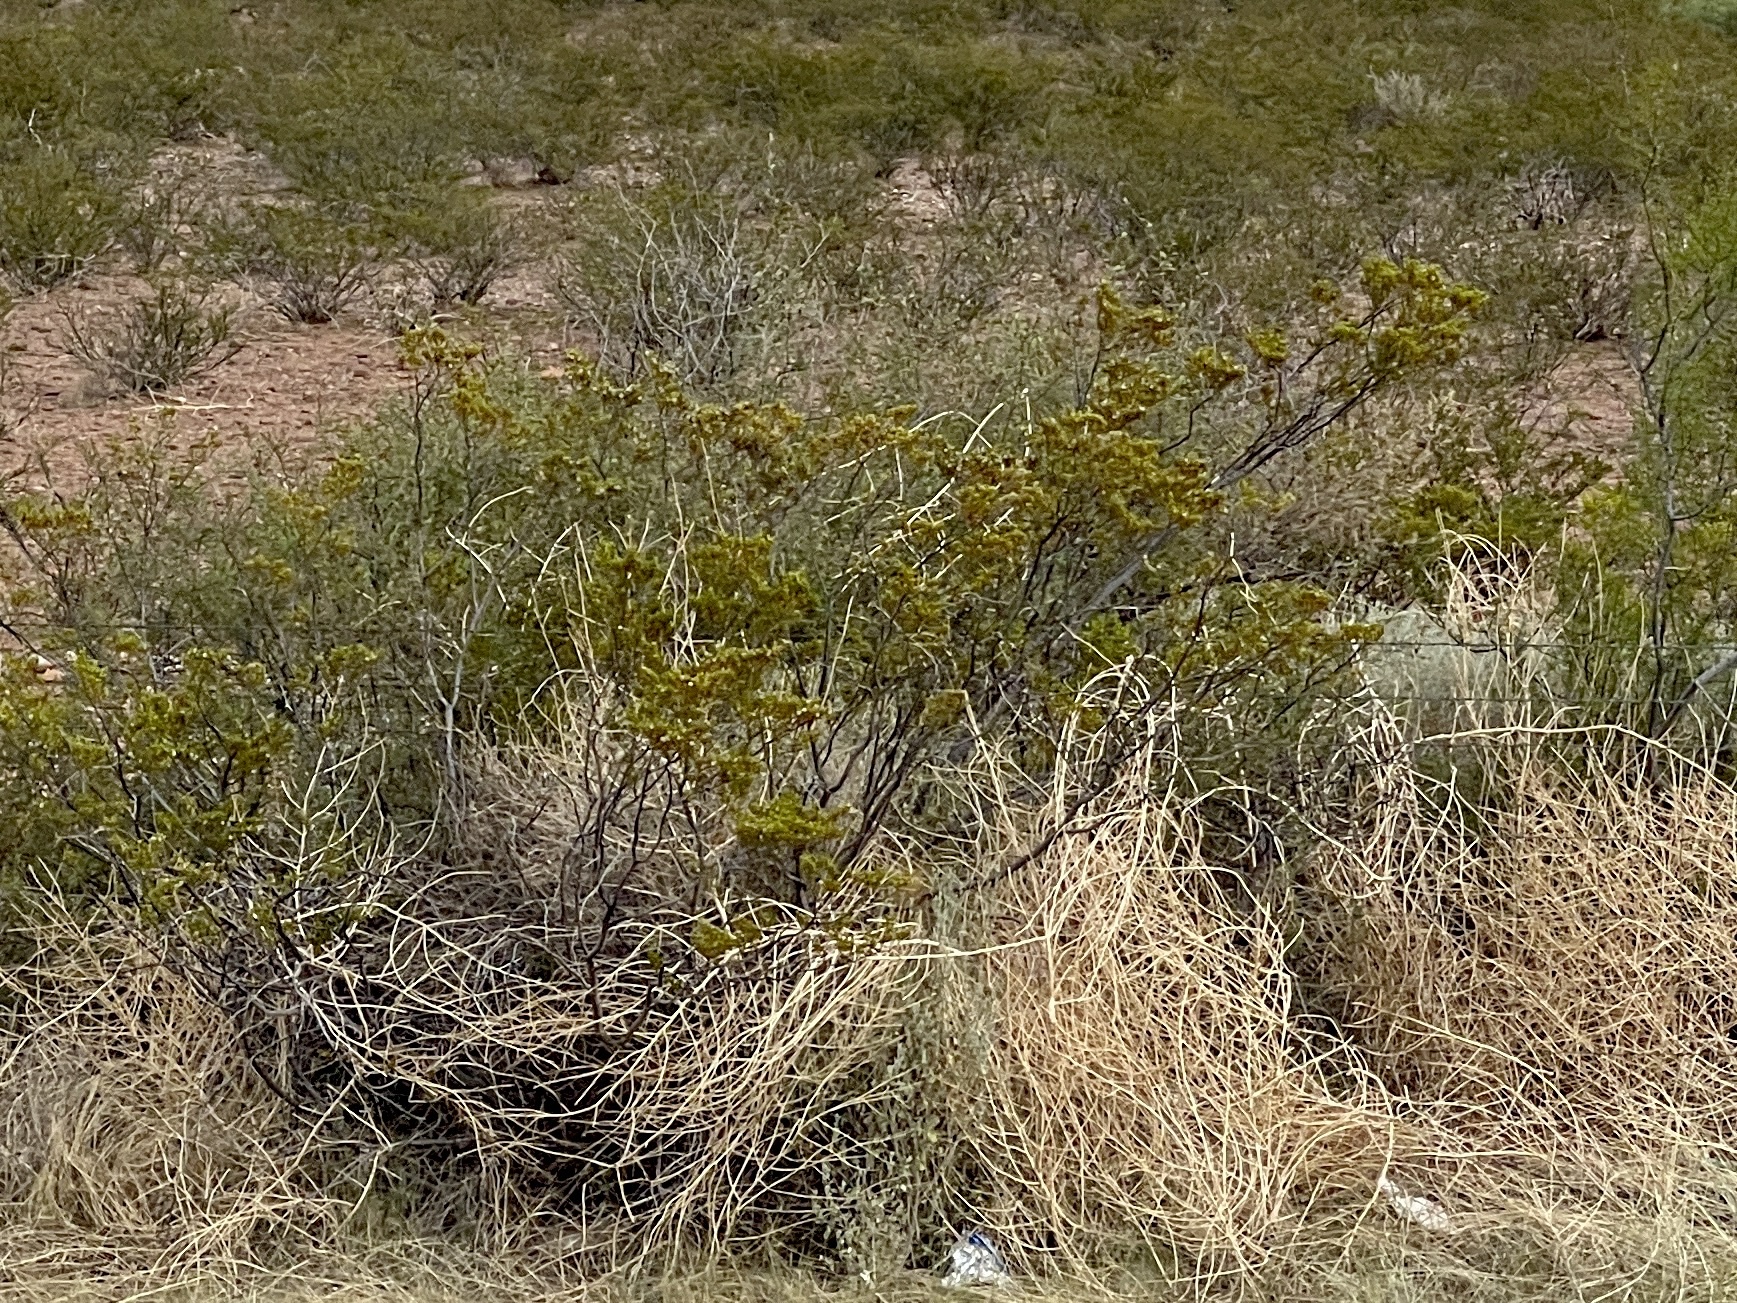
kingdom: Plantae
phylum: Tracheophyta
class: Magnoliopsida
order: Zygophyllales
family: Zygophyllaceae
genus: Larrea
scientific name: Larrea tridentata
